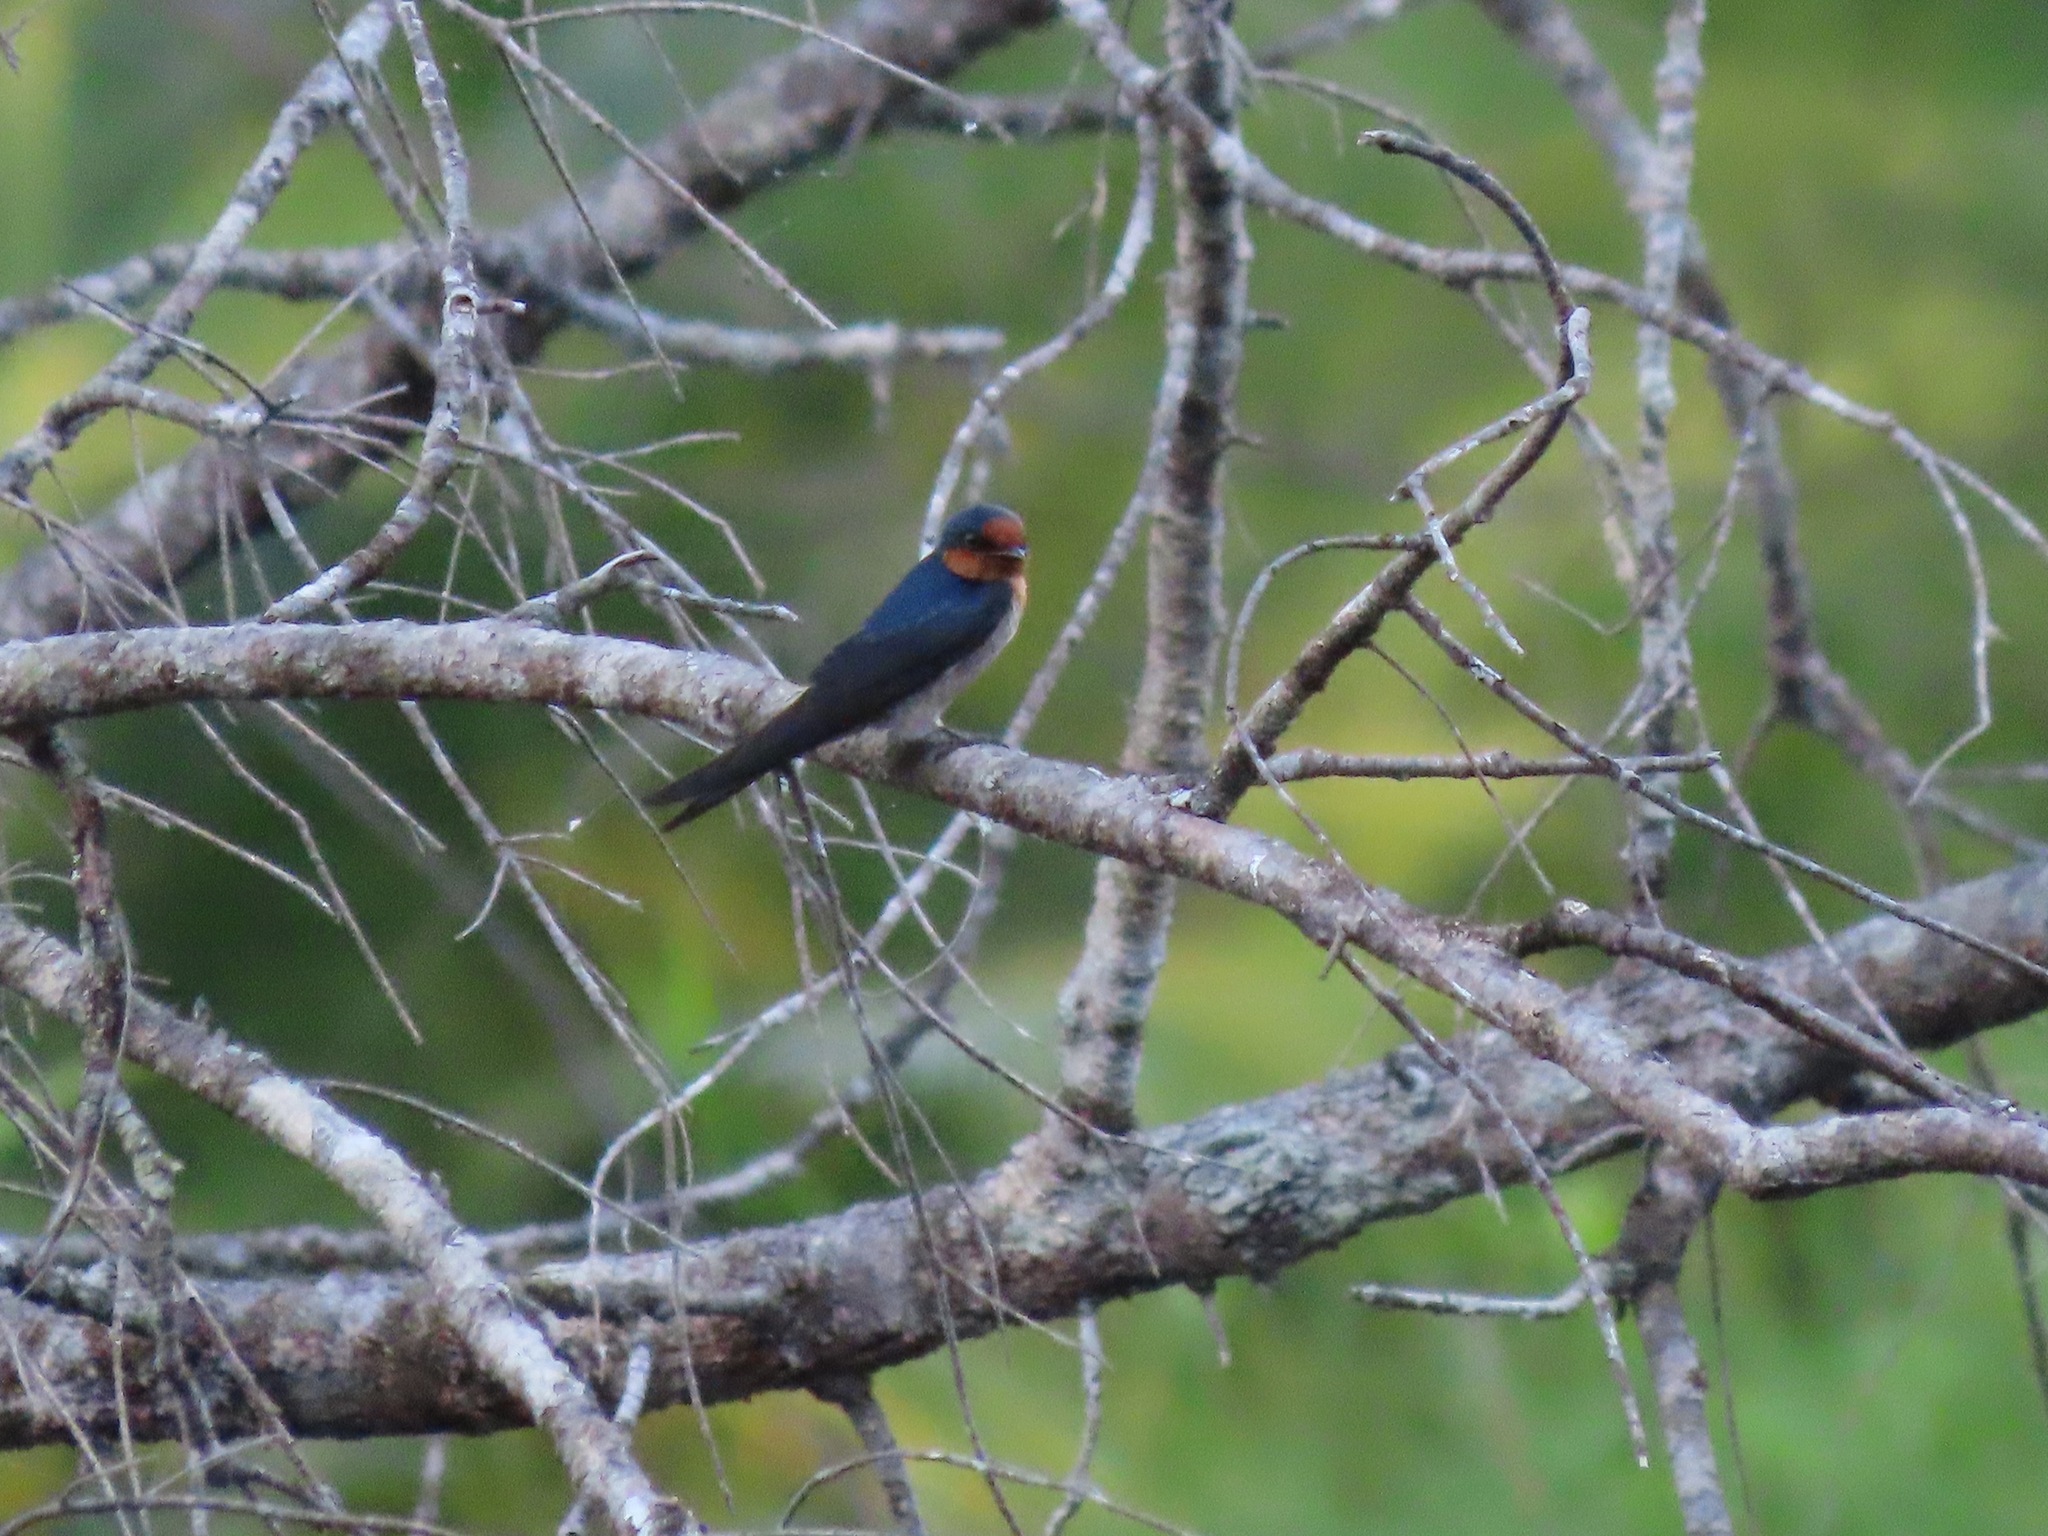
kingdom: Animalia
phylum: Chordata
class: Aves
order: Passeriformes
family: Hirundinidae
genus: Hirundo
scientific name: Hirundo tahitica
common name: Pacific swallow
